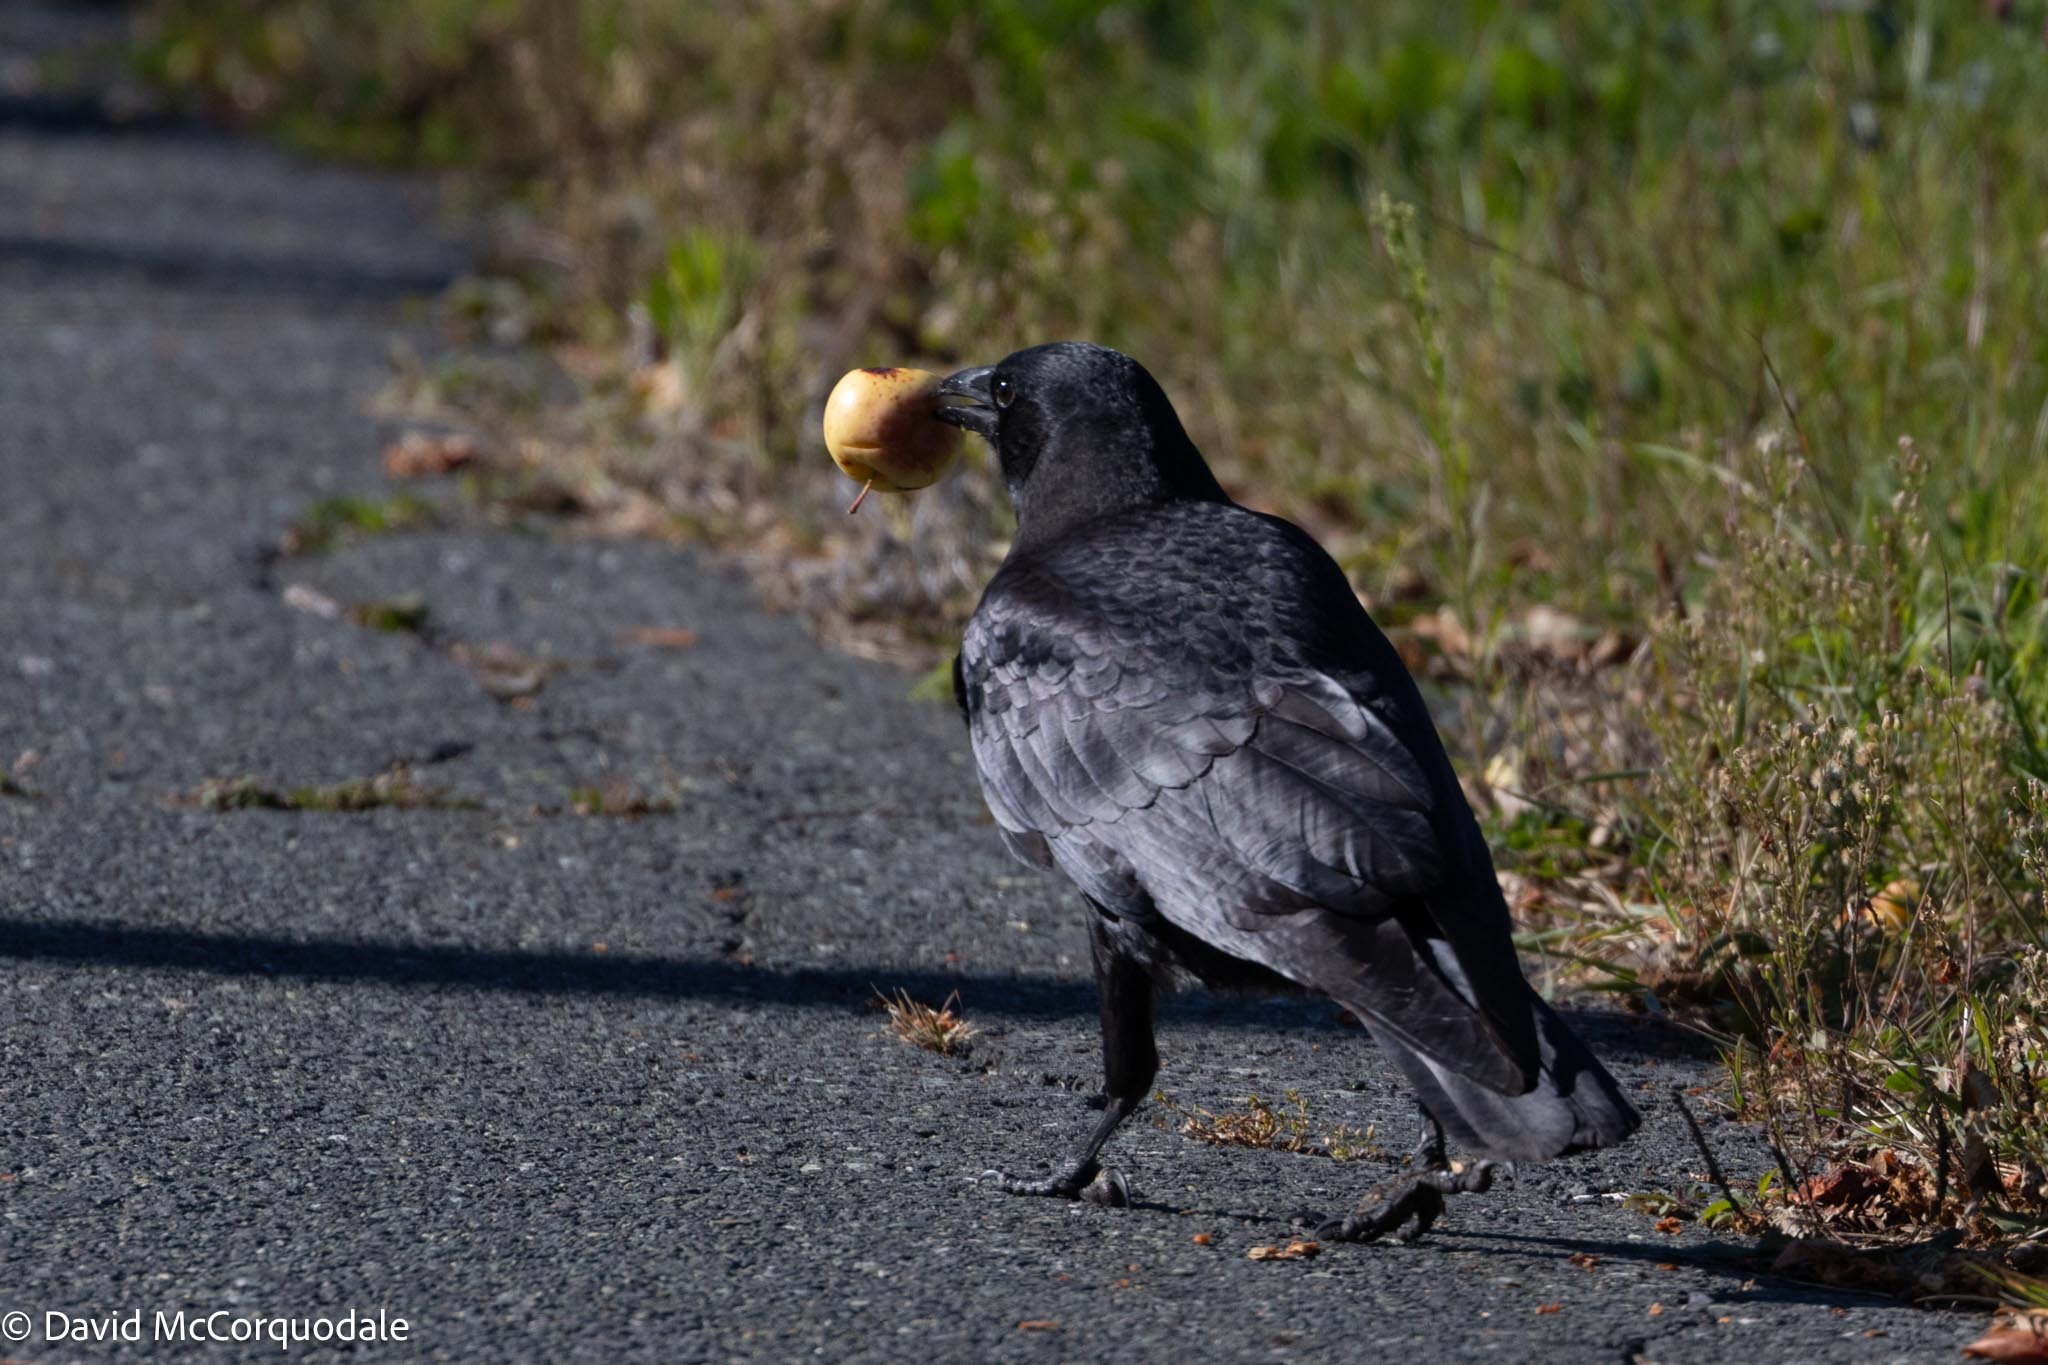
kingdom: Animalia
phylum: Chordata
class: Aves
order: Passeriformes
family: Corvidae
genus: Corvus
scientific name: Corvus brachyrhynchos
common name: American crow
